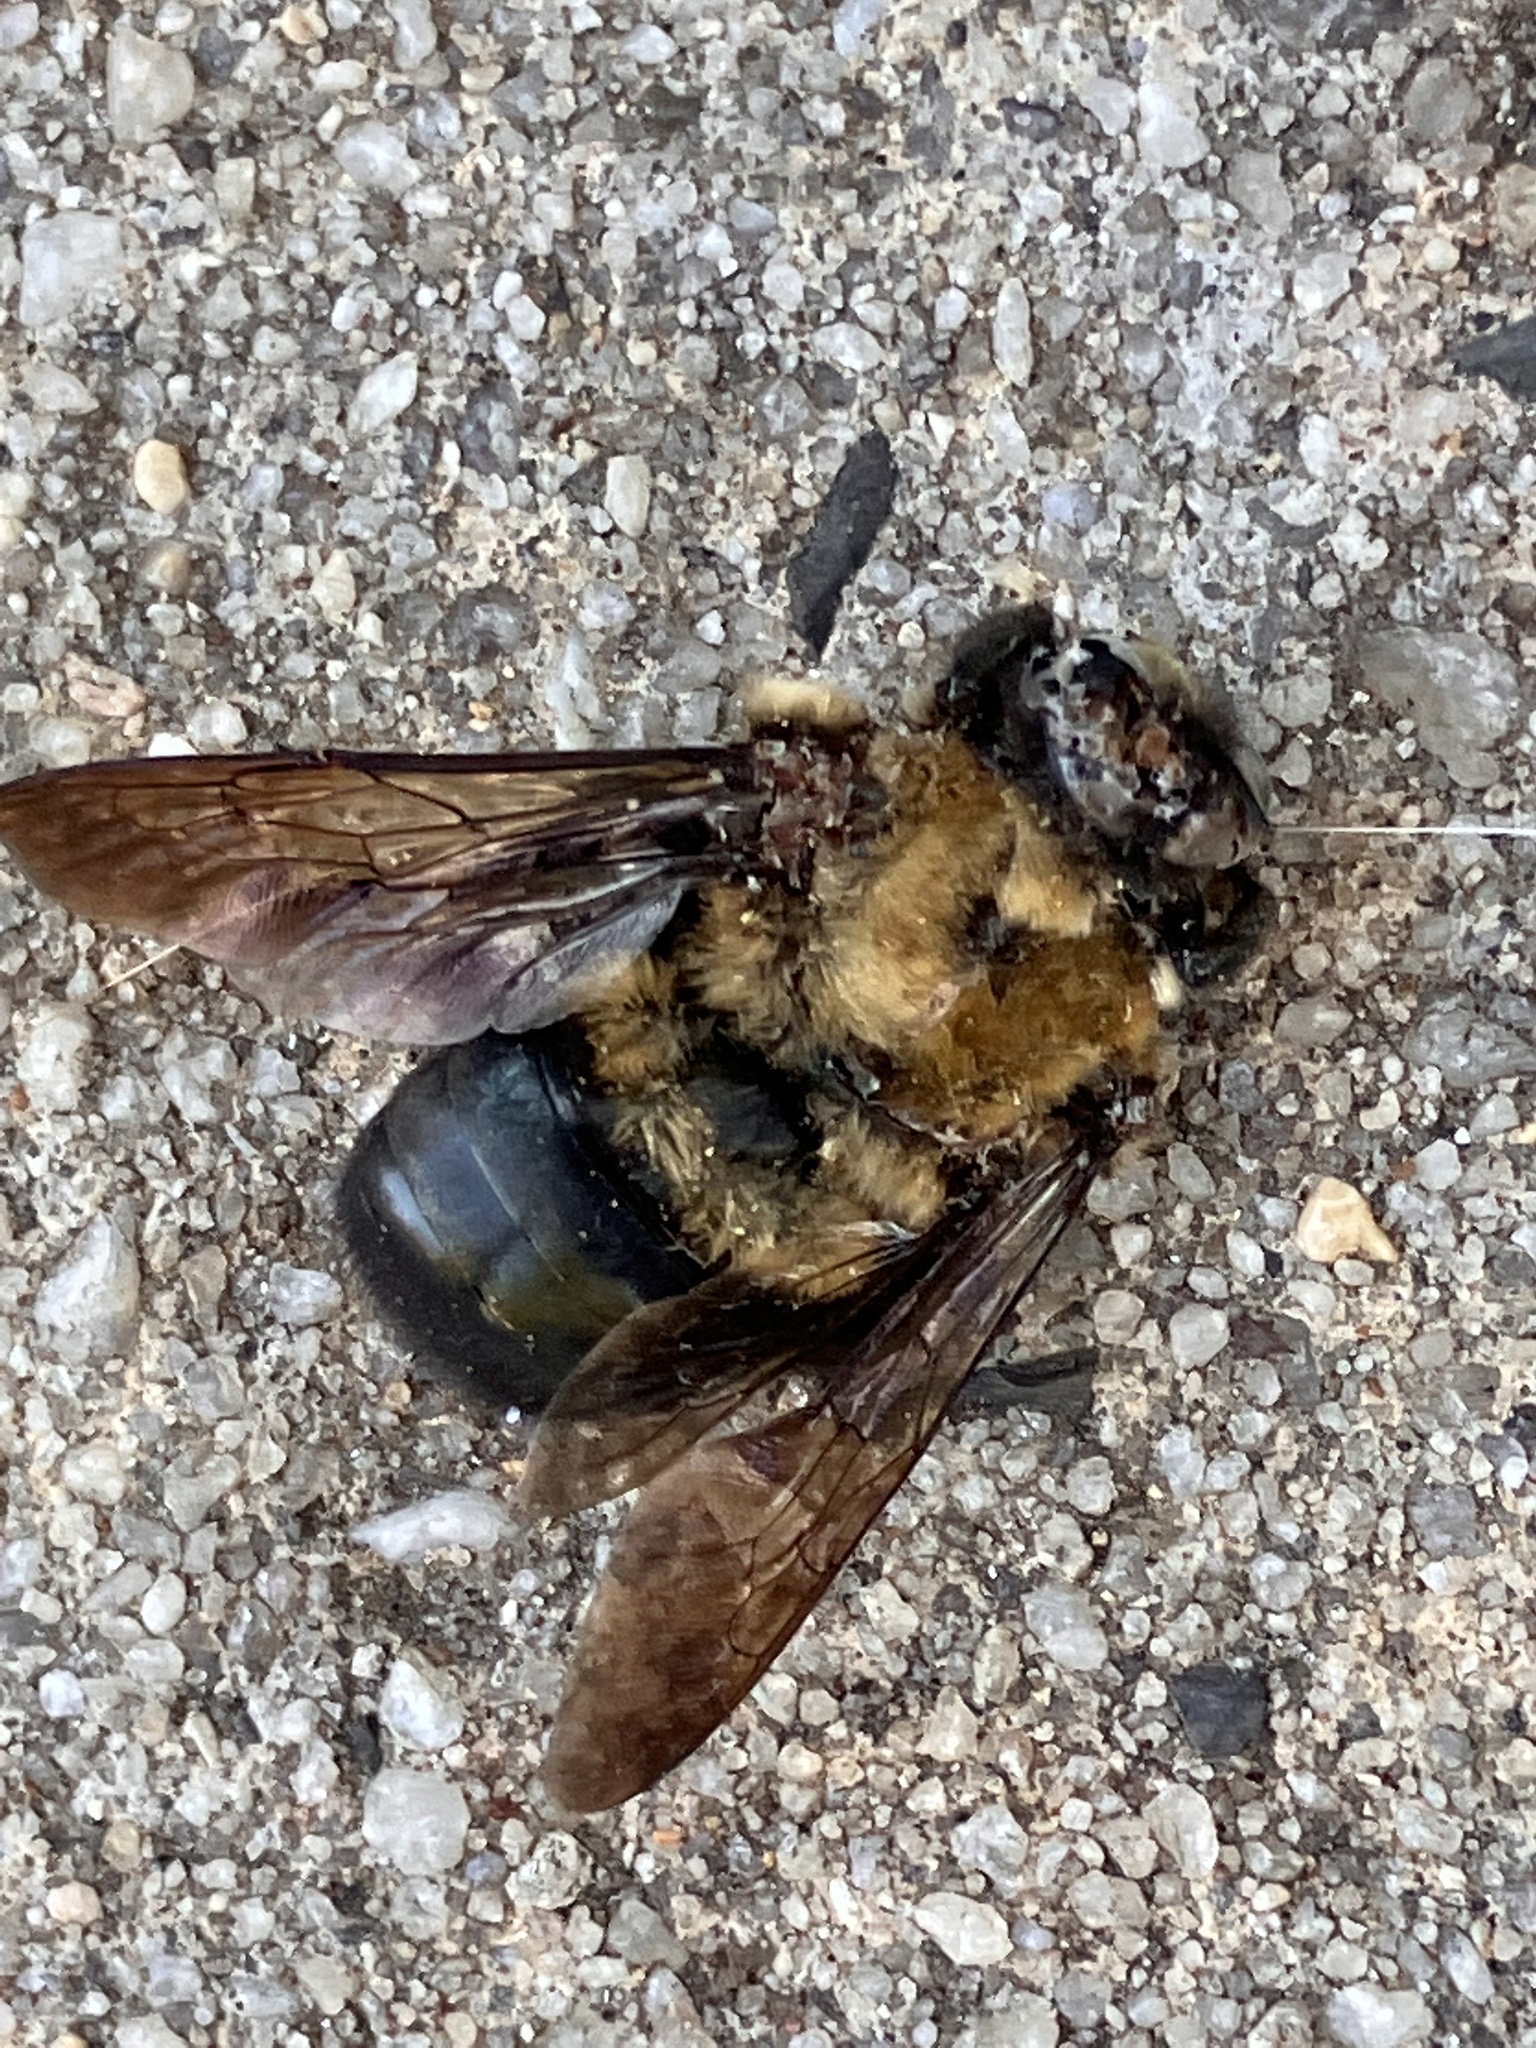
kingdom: Animalia
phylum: Arthropoda
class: Insecta
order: Hymenoptera
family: Apidae
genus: Xylocopa
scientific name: Xylocopa virginica
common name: Carpenter bee
